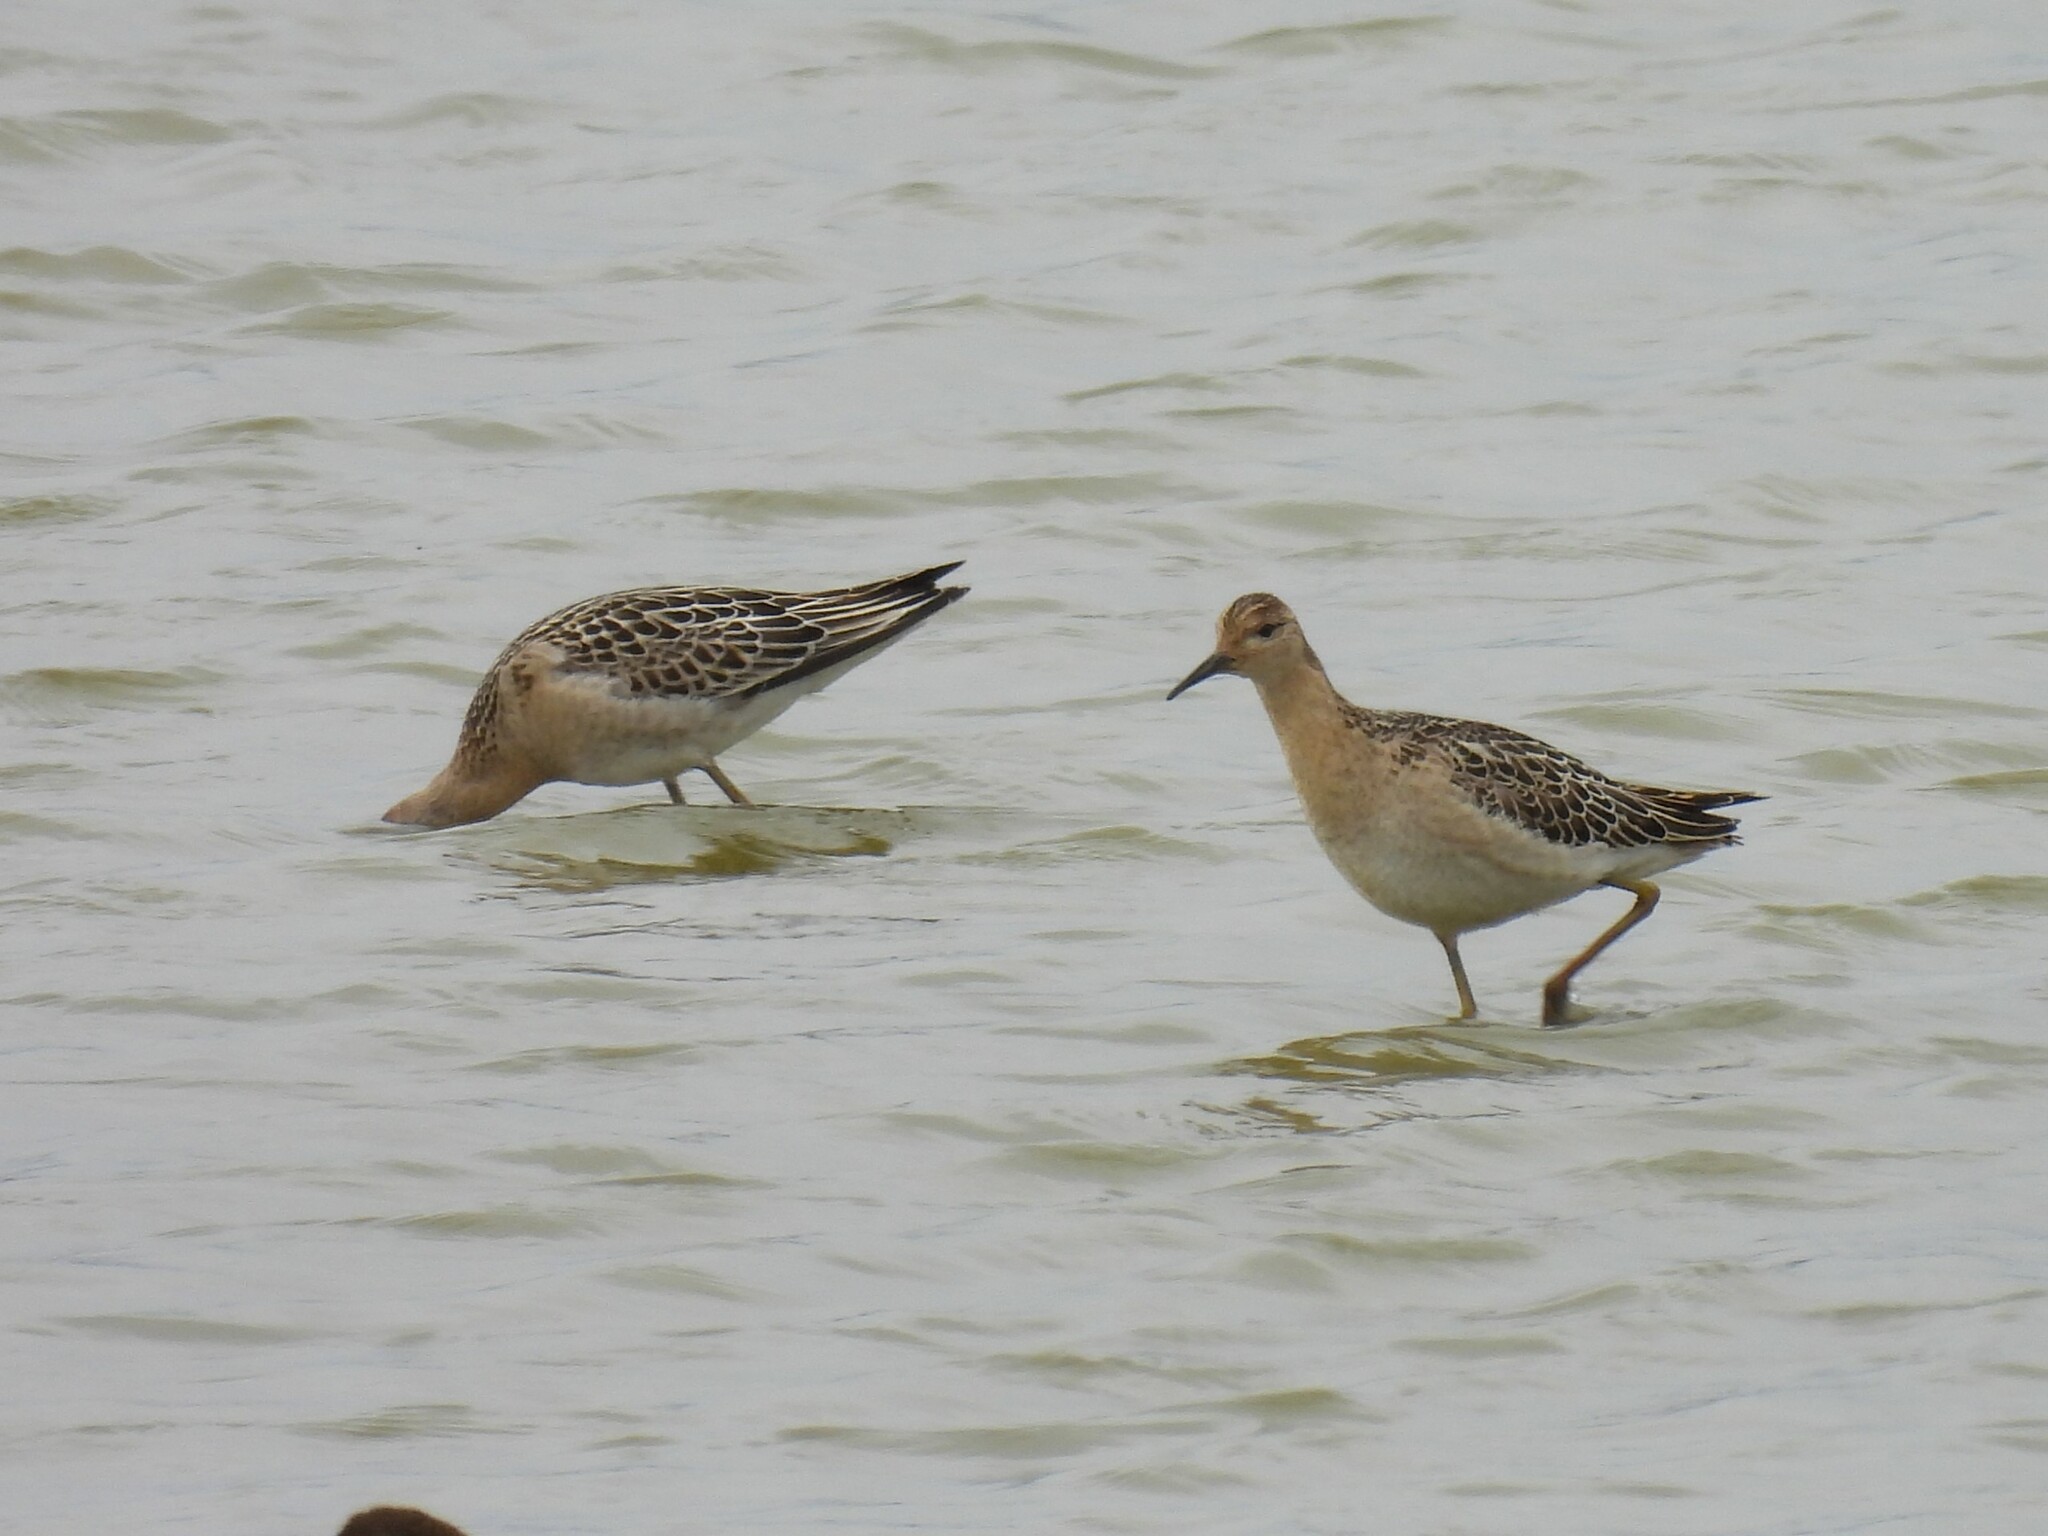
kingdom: Animalia
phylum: Chordata
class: Aves
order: Charadriiformes
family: Scolopacidae
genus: Calidris
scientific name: Calidris pugnax
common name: Ruff
